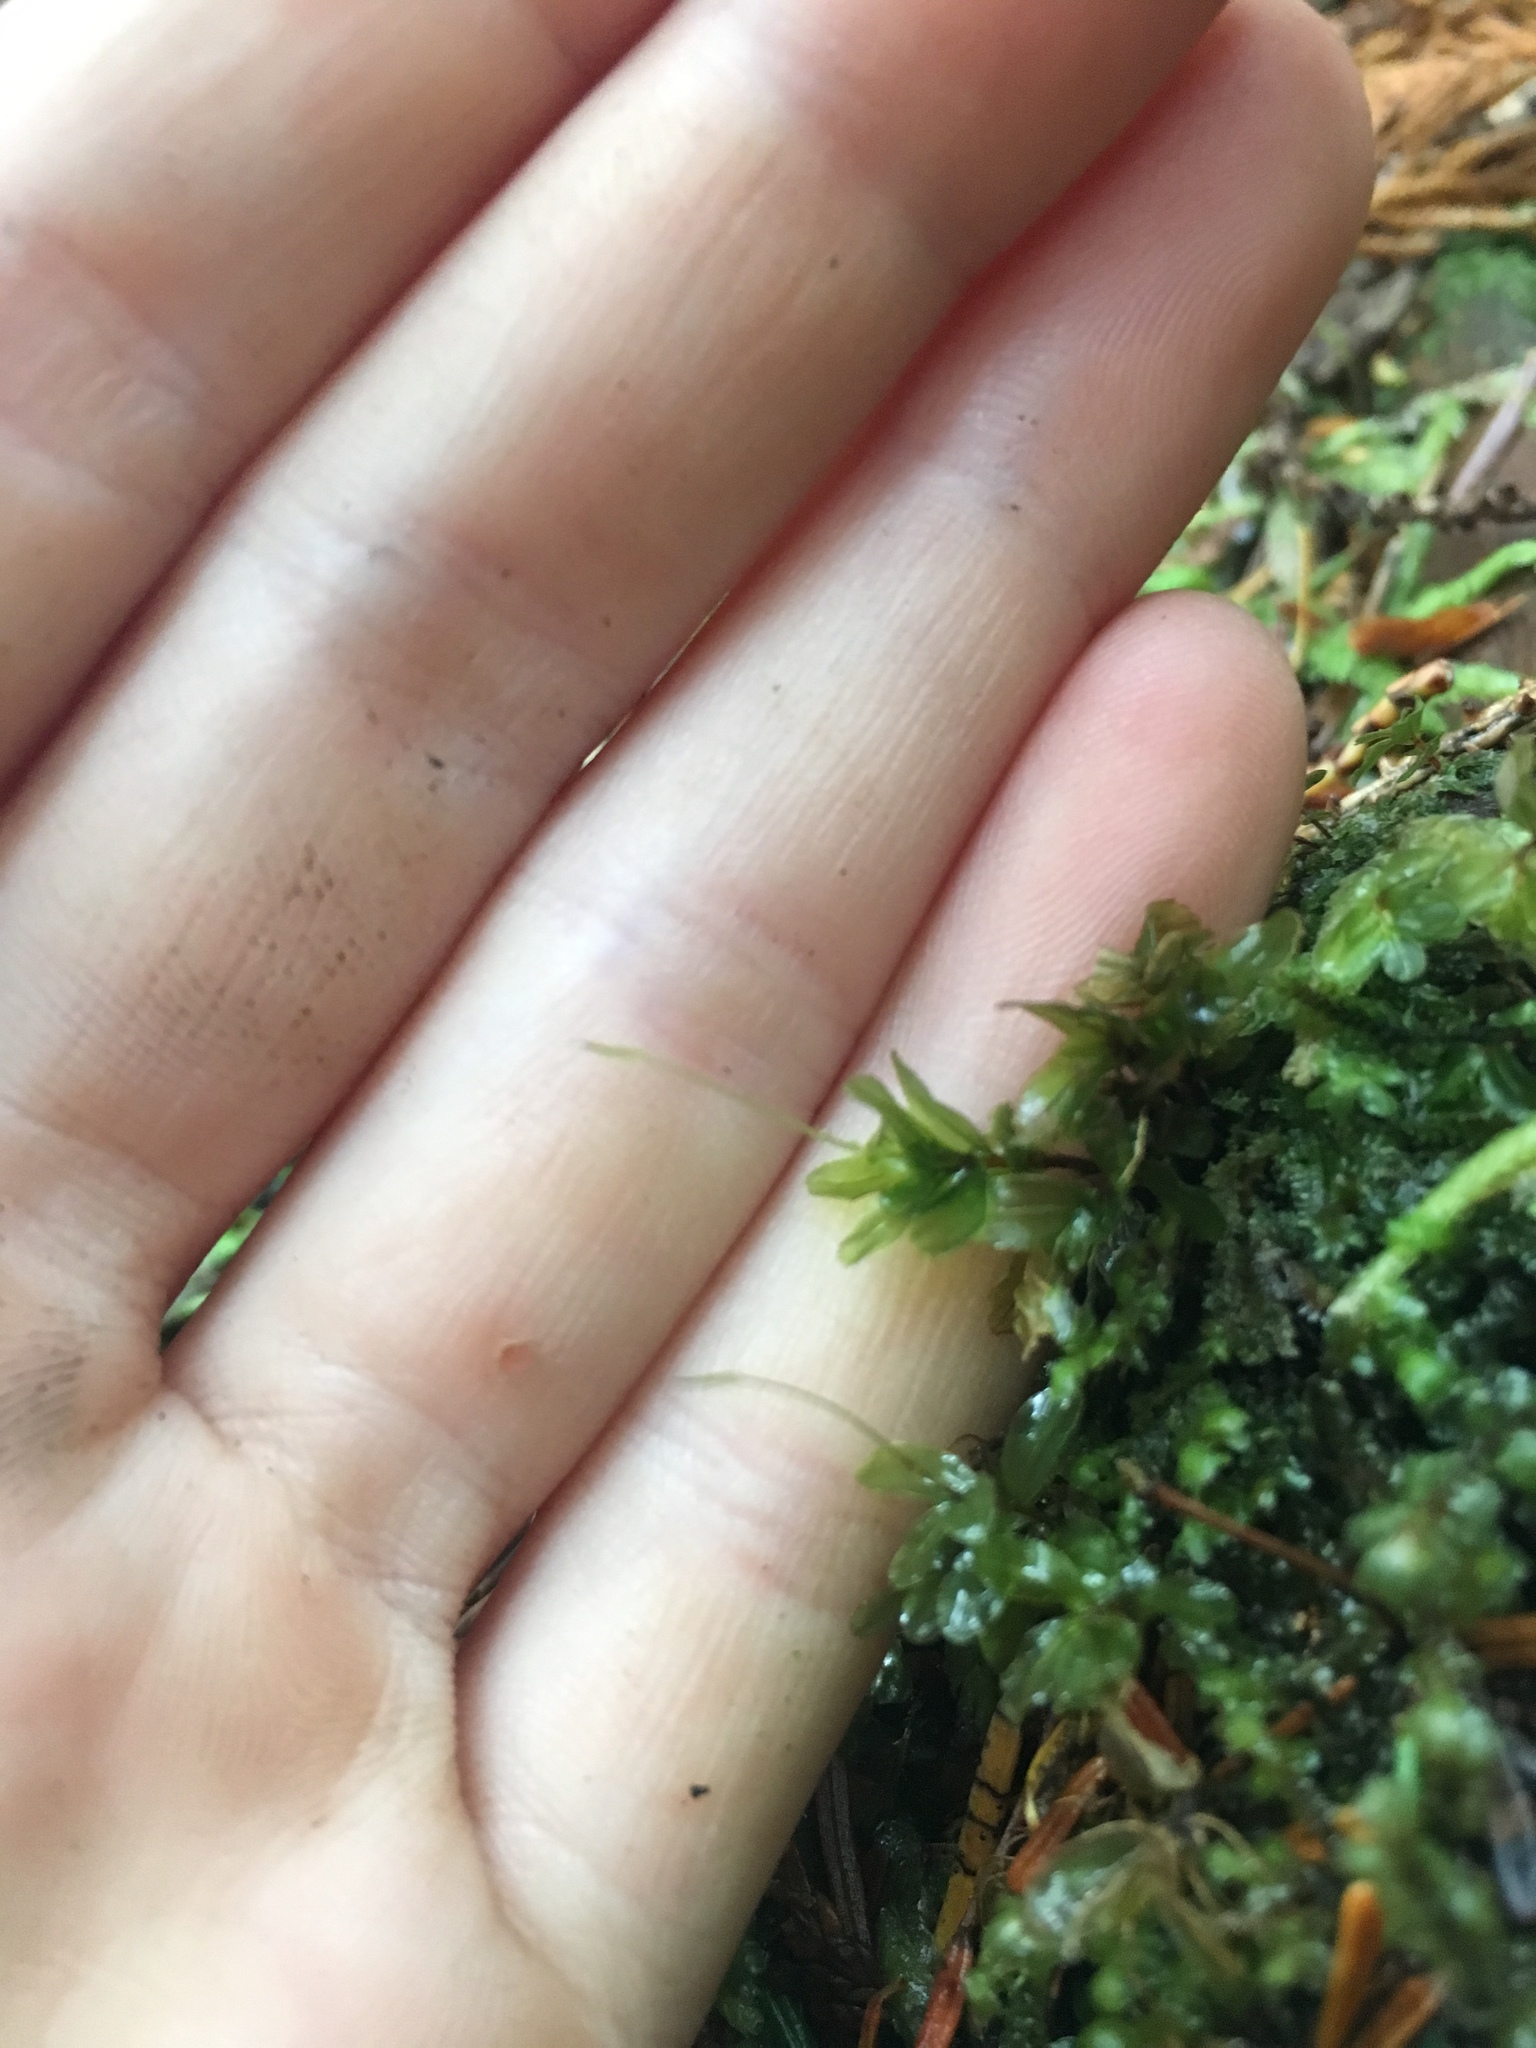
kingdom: Plantae
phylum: Bryophyta
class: Bryopsida
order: Bryales
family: Mniaceae
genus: Rhizomnium
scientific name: Rhizomnium glabrescens
